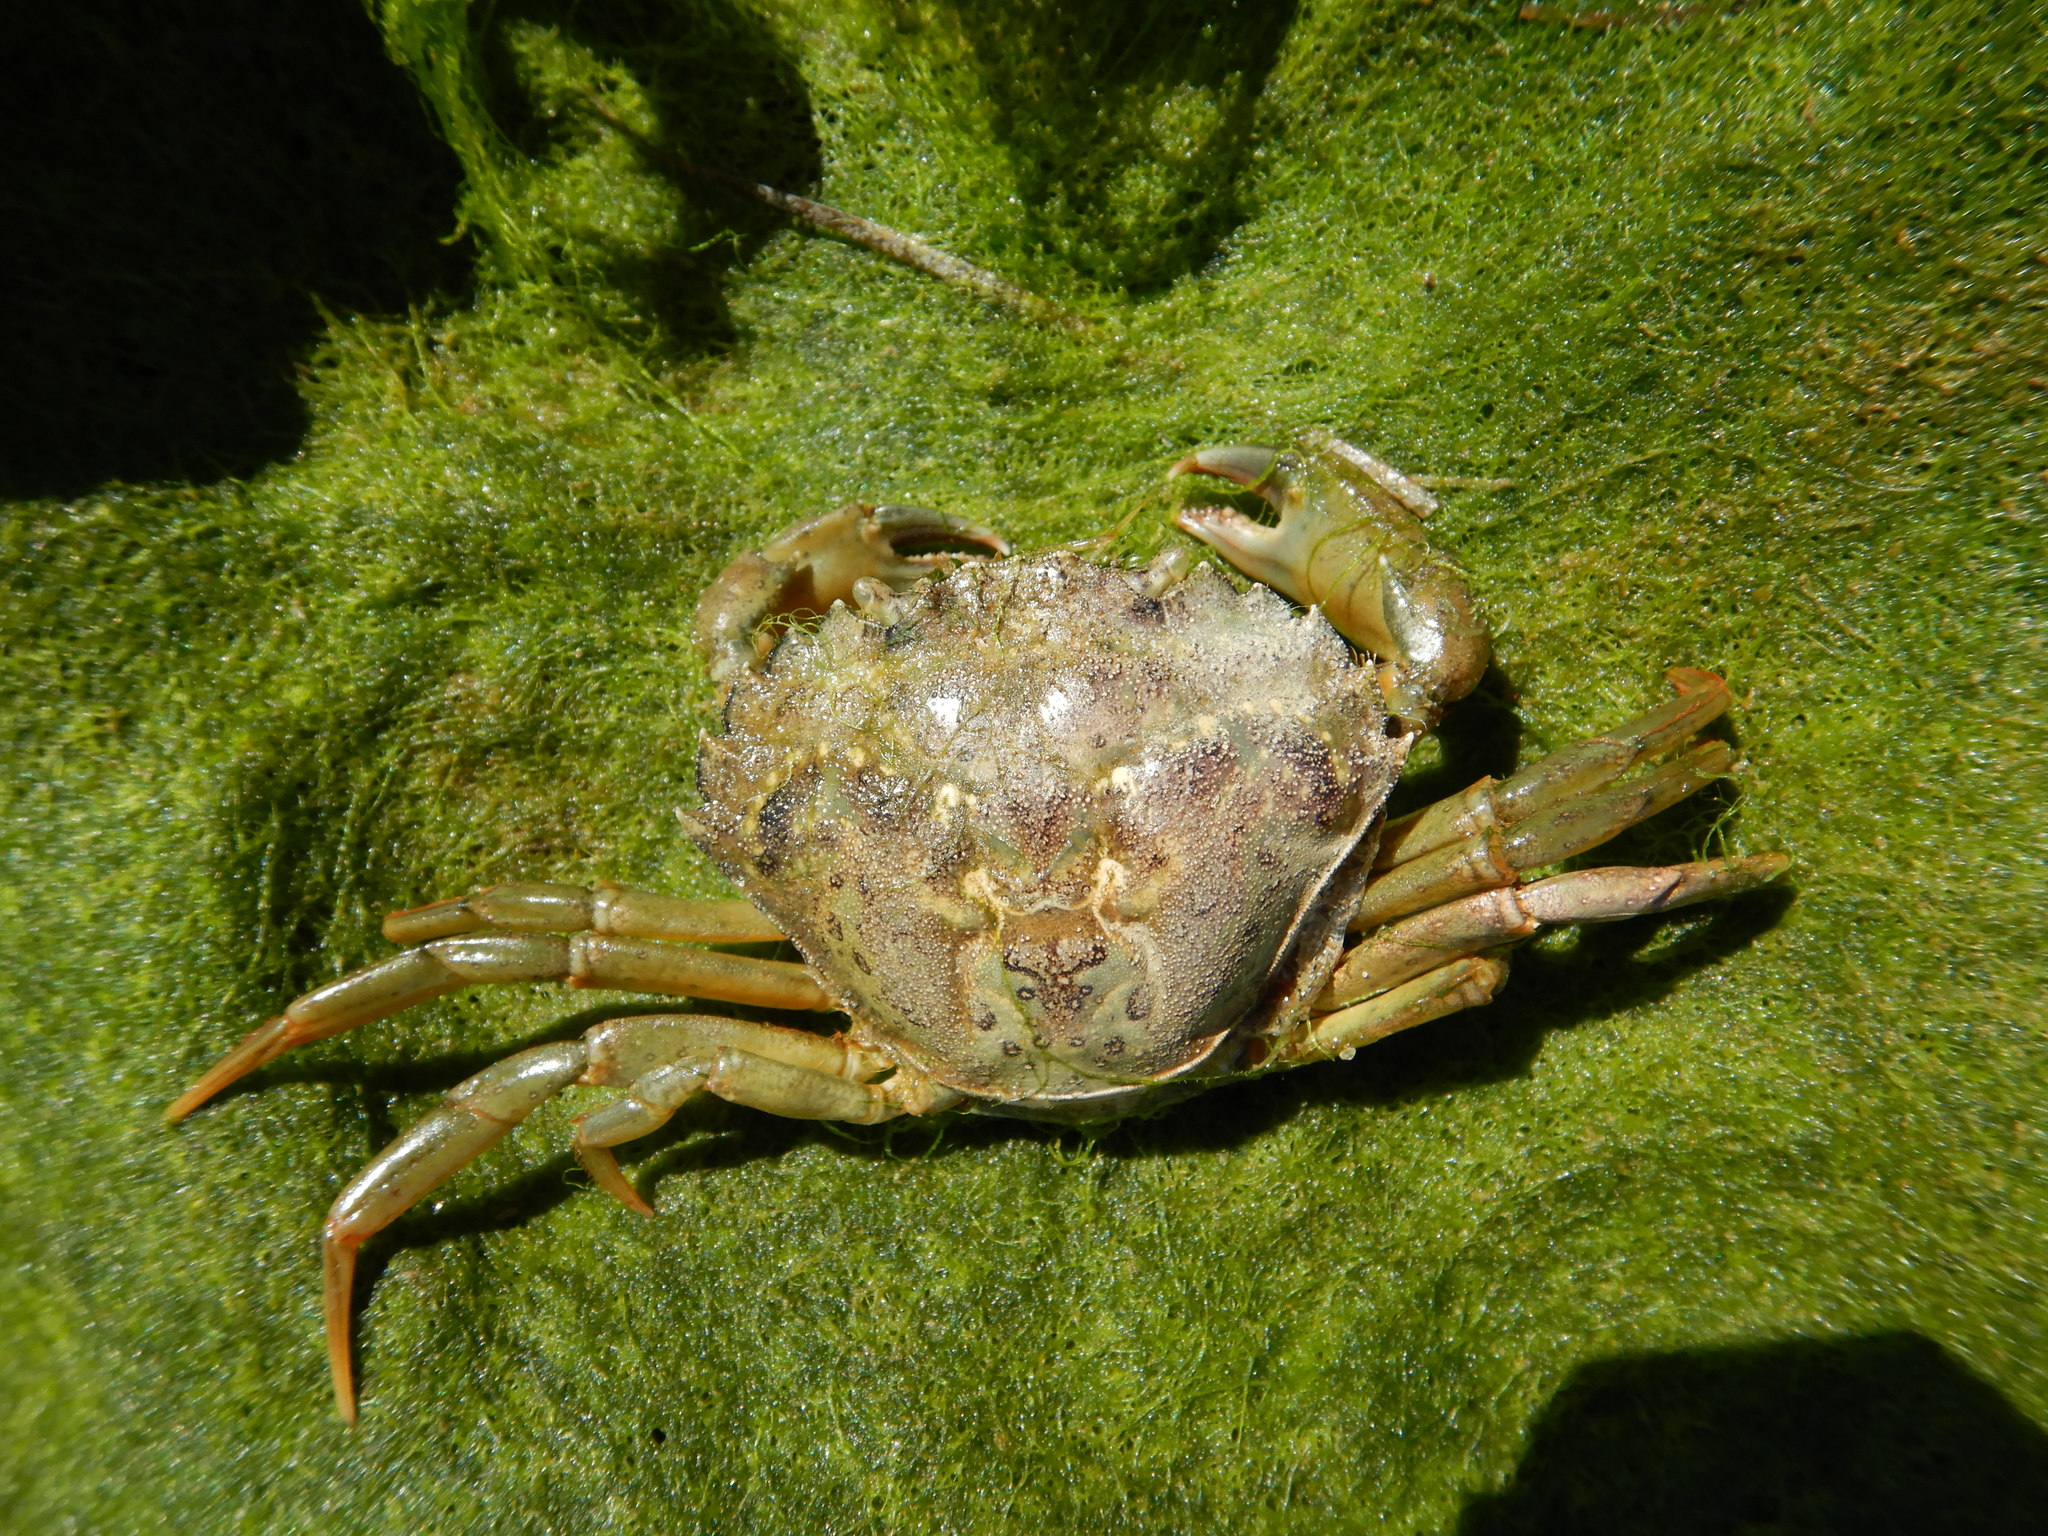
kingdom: Animalia
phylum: Arthropoda
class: Malacostraca
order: Decapoda
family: Carcinidae
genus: Carcinus
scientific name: Carcinus maenas
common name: European green crab
